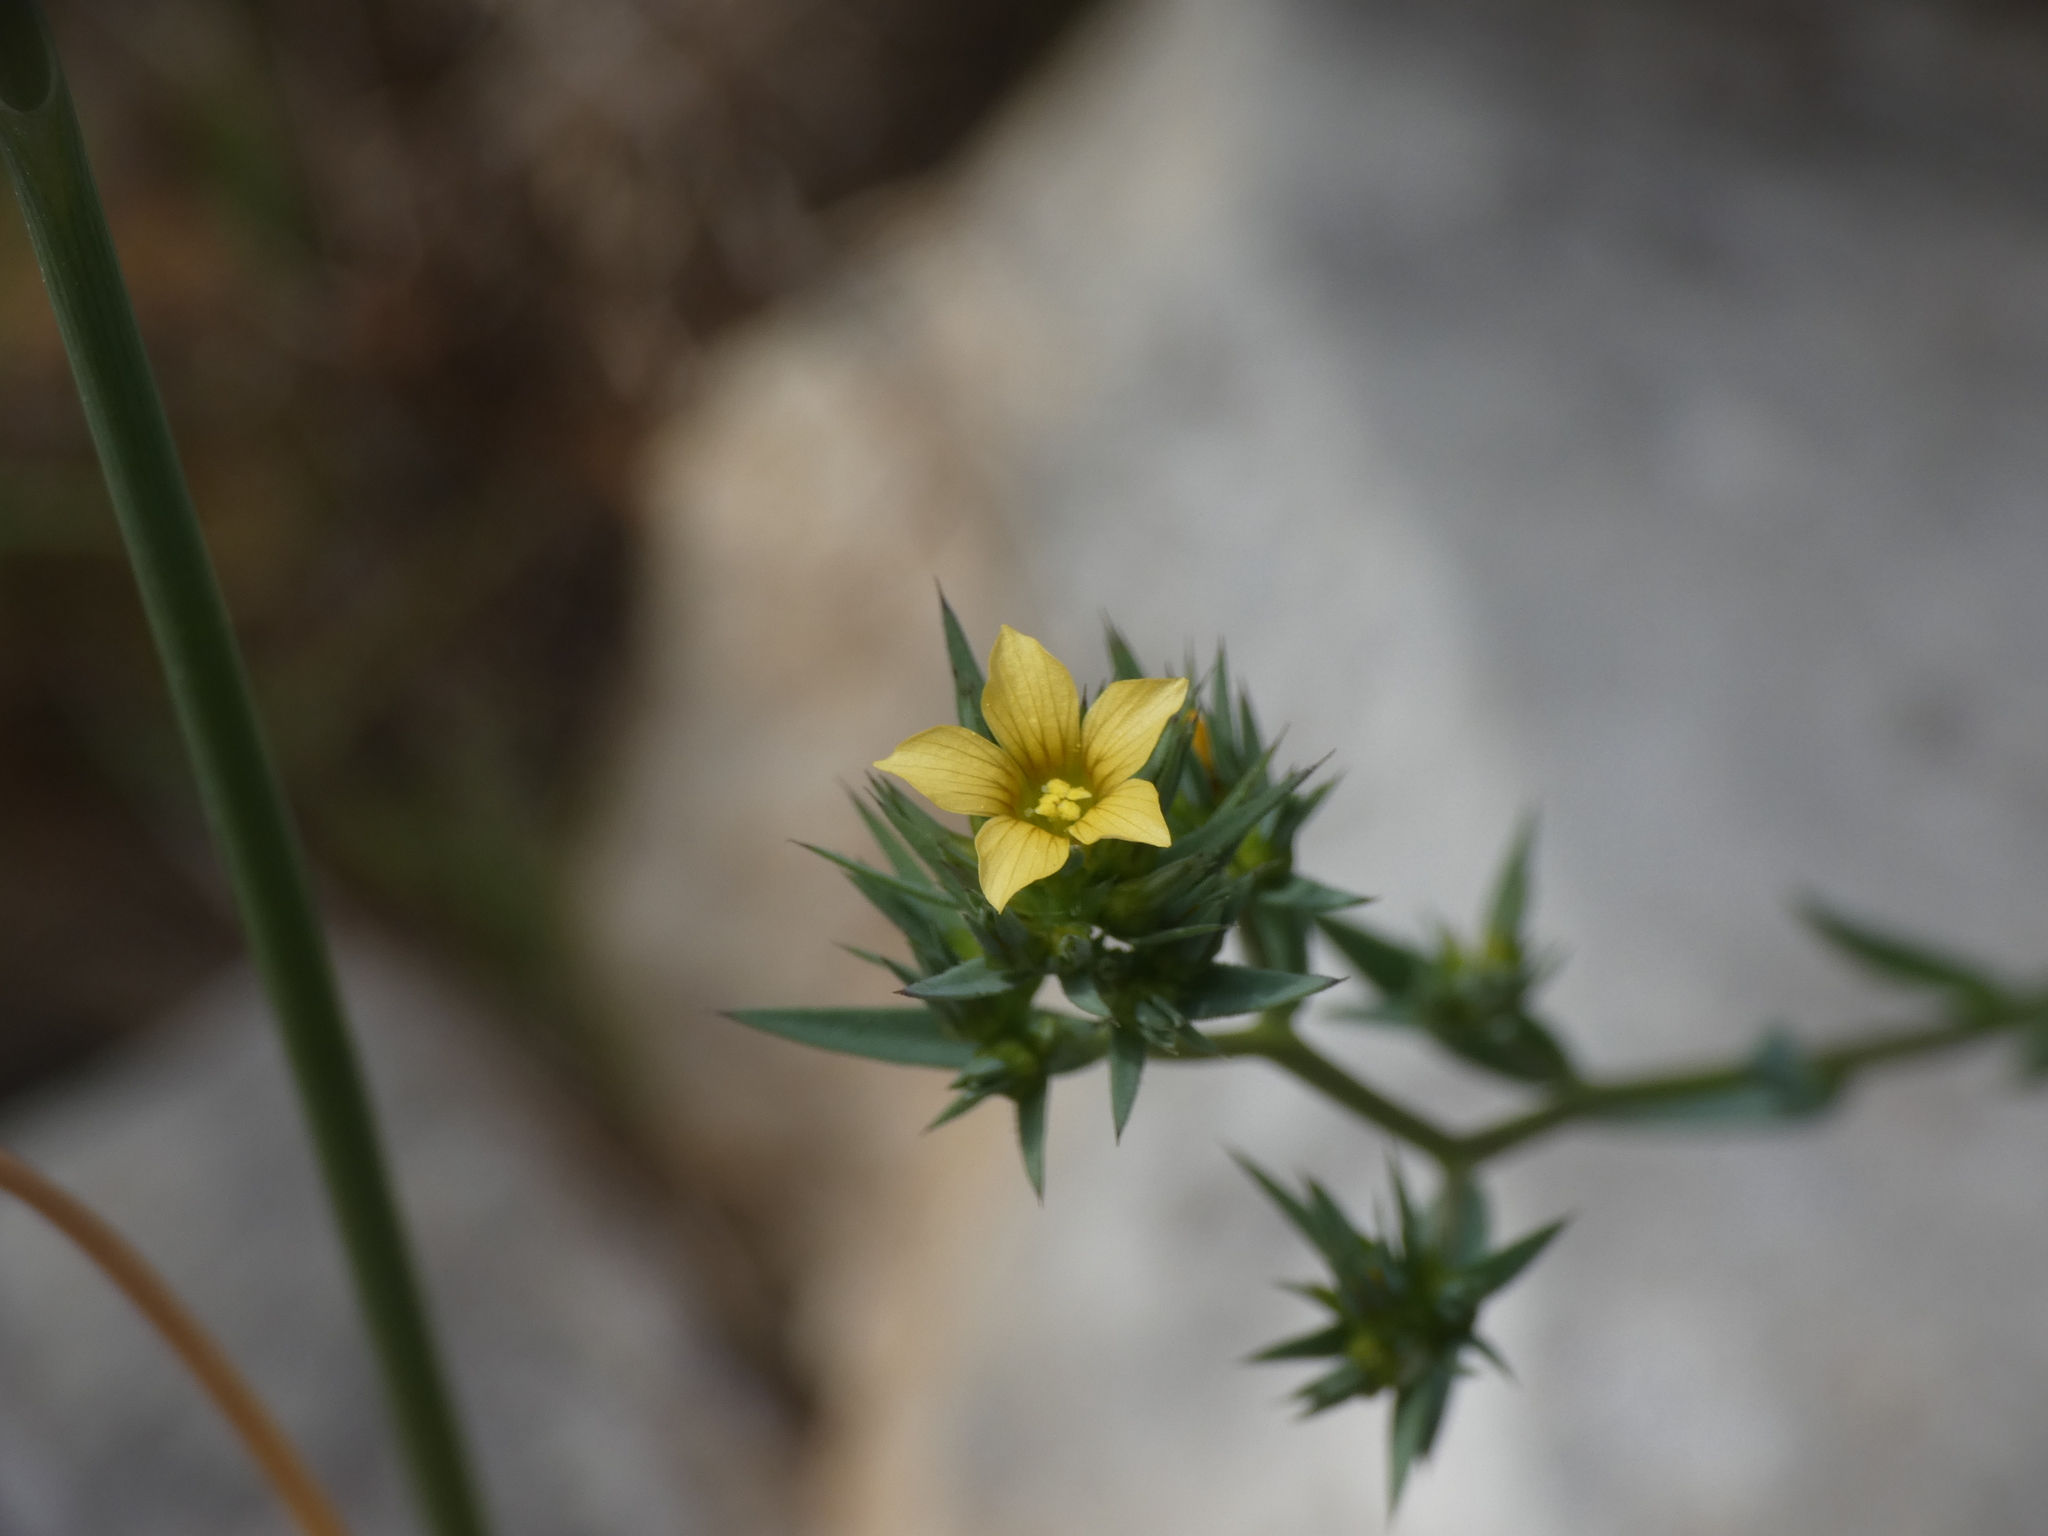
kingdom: Plantae
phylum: Tracheophyta
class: Magnoliopsida
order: Malpighiales
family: Linaceae
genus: Linum
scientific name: Linum strictum
